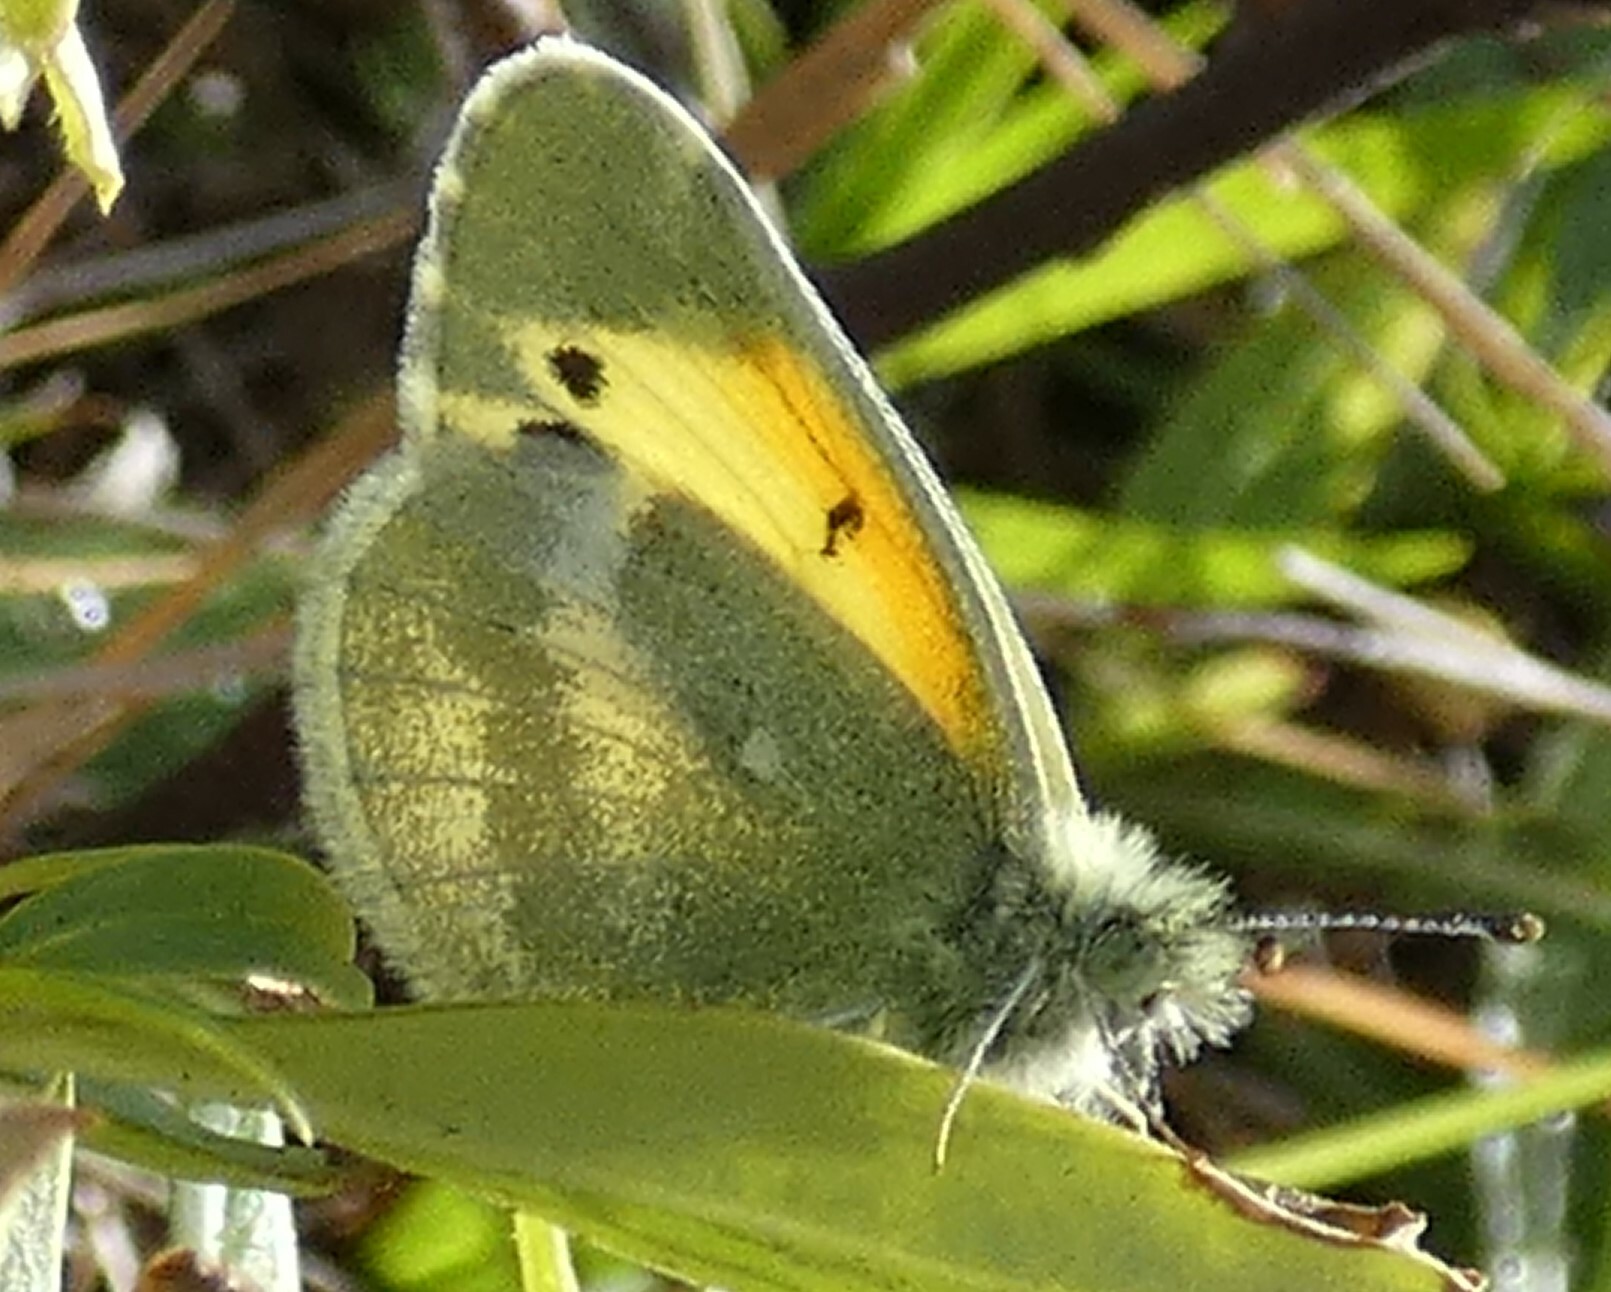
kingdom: Animalia
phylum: Arthropoda
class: Insecta
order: Lepidoptera
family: Pieridae
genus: Nathalis
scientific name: Nathalis iole
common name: Dainty sulphur
